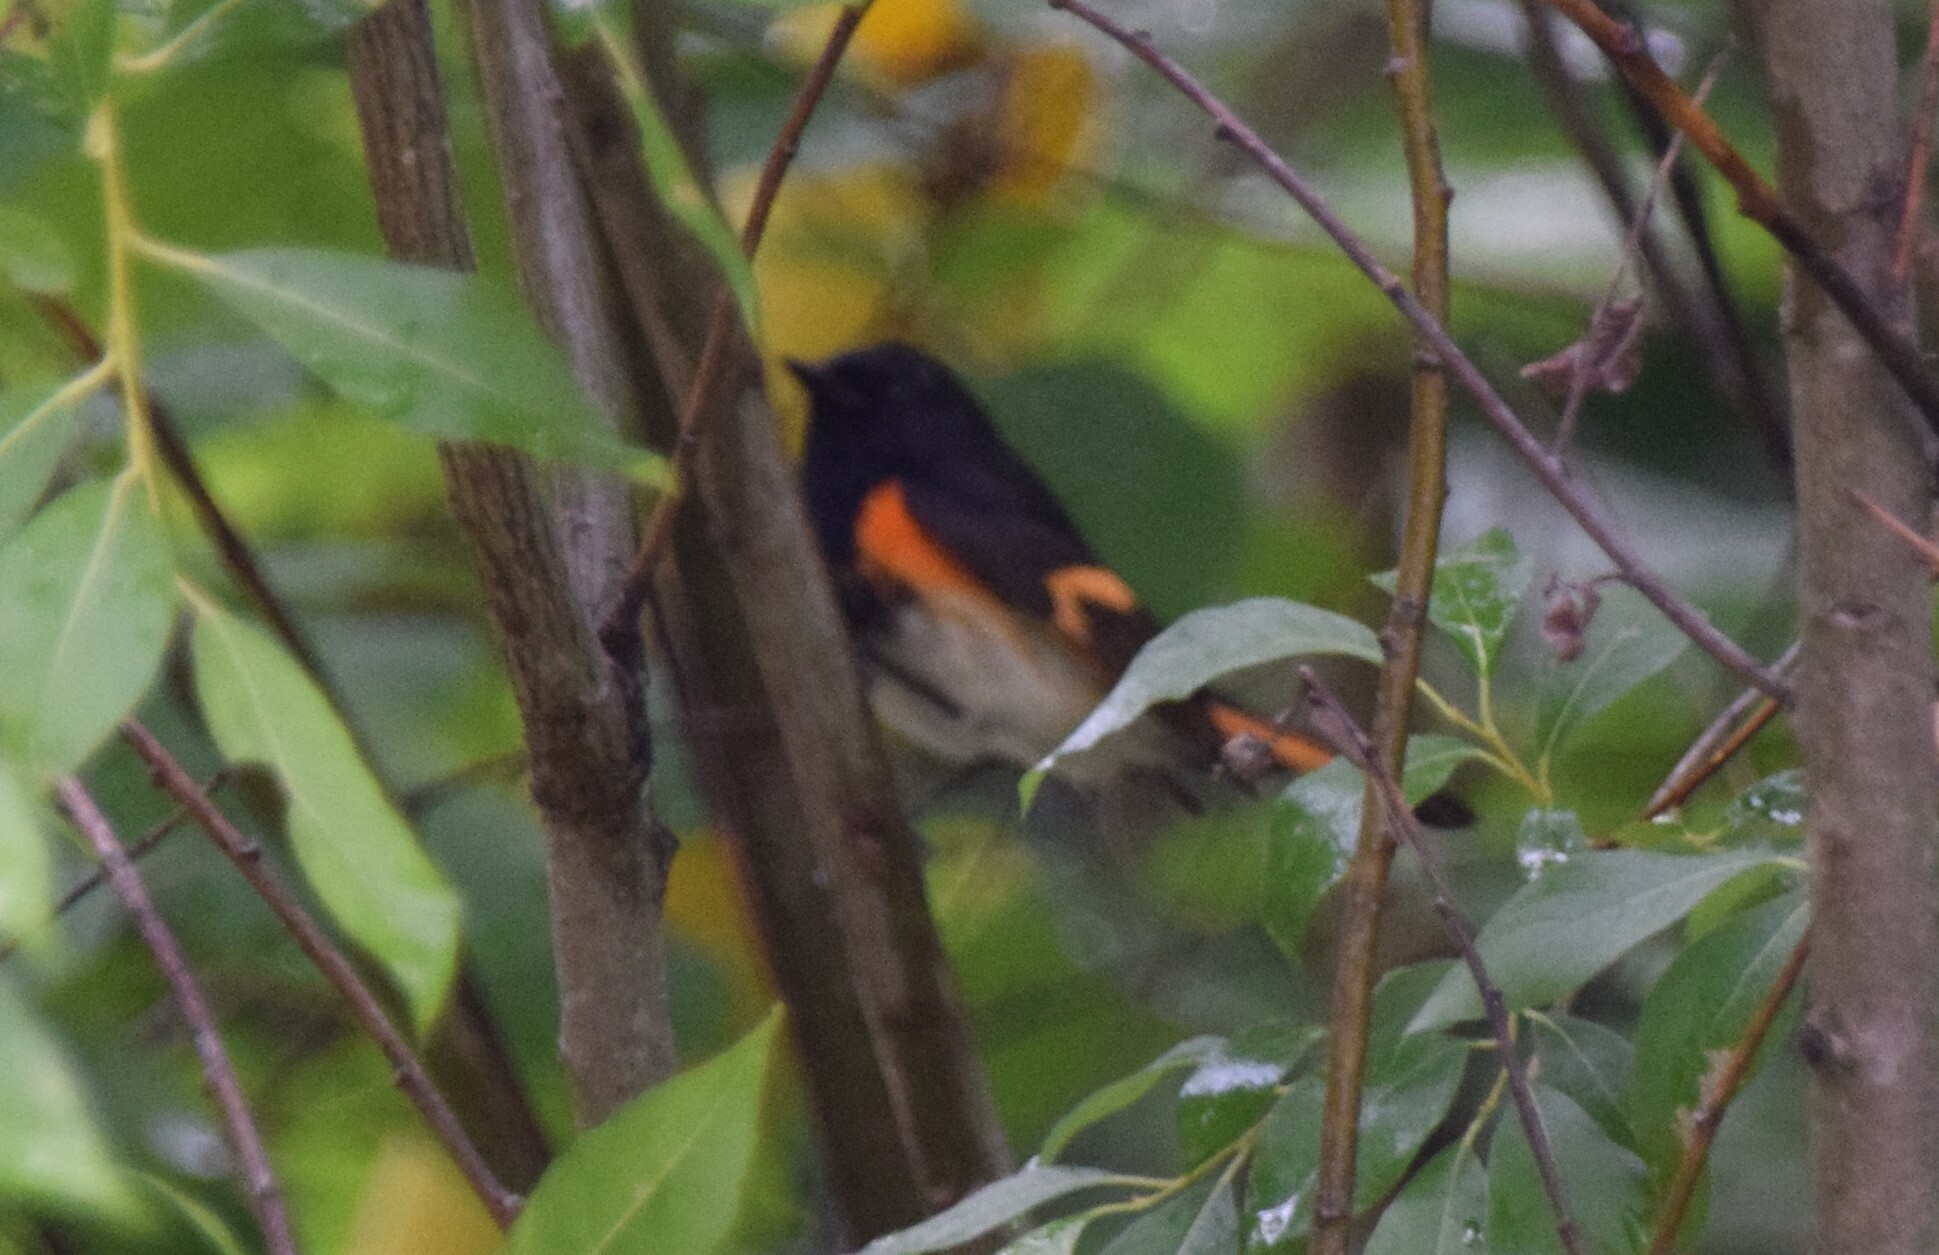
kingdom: Animalia
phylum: Chordata
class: Aves
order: Passeriformes
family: Parulidae
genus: Setophaga
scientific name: Setophaga ruticilla
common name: American redstart
